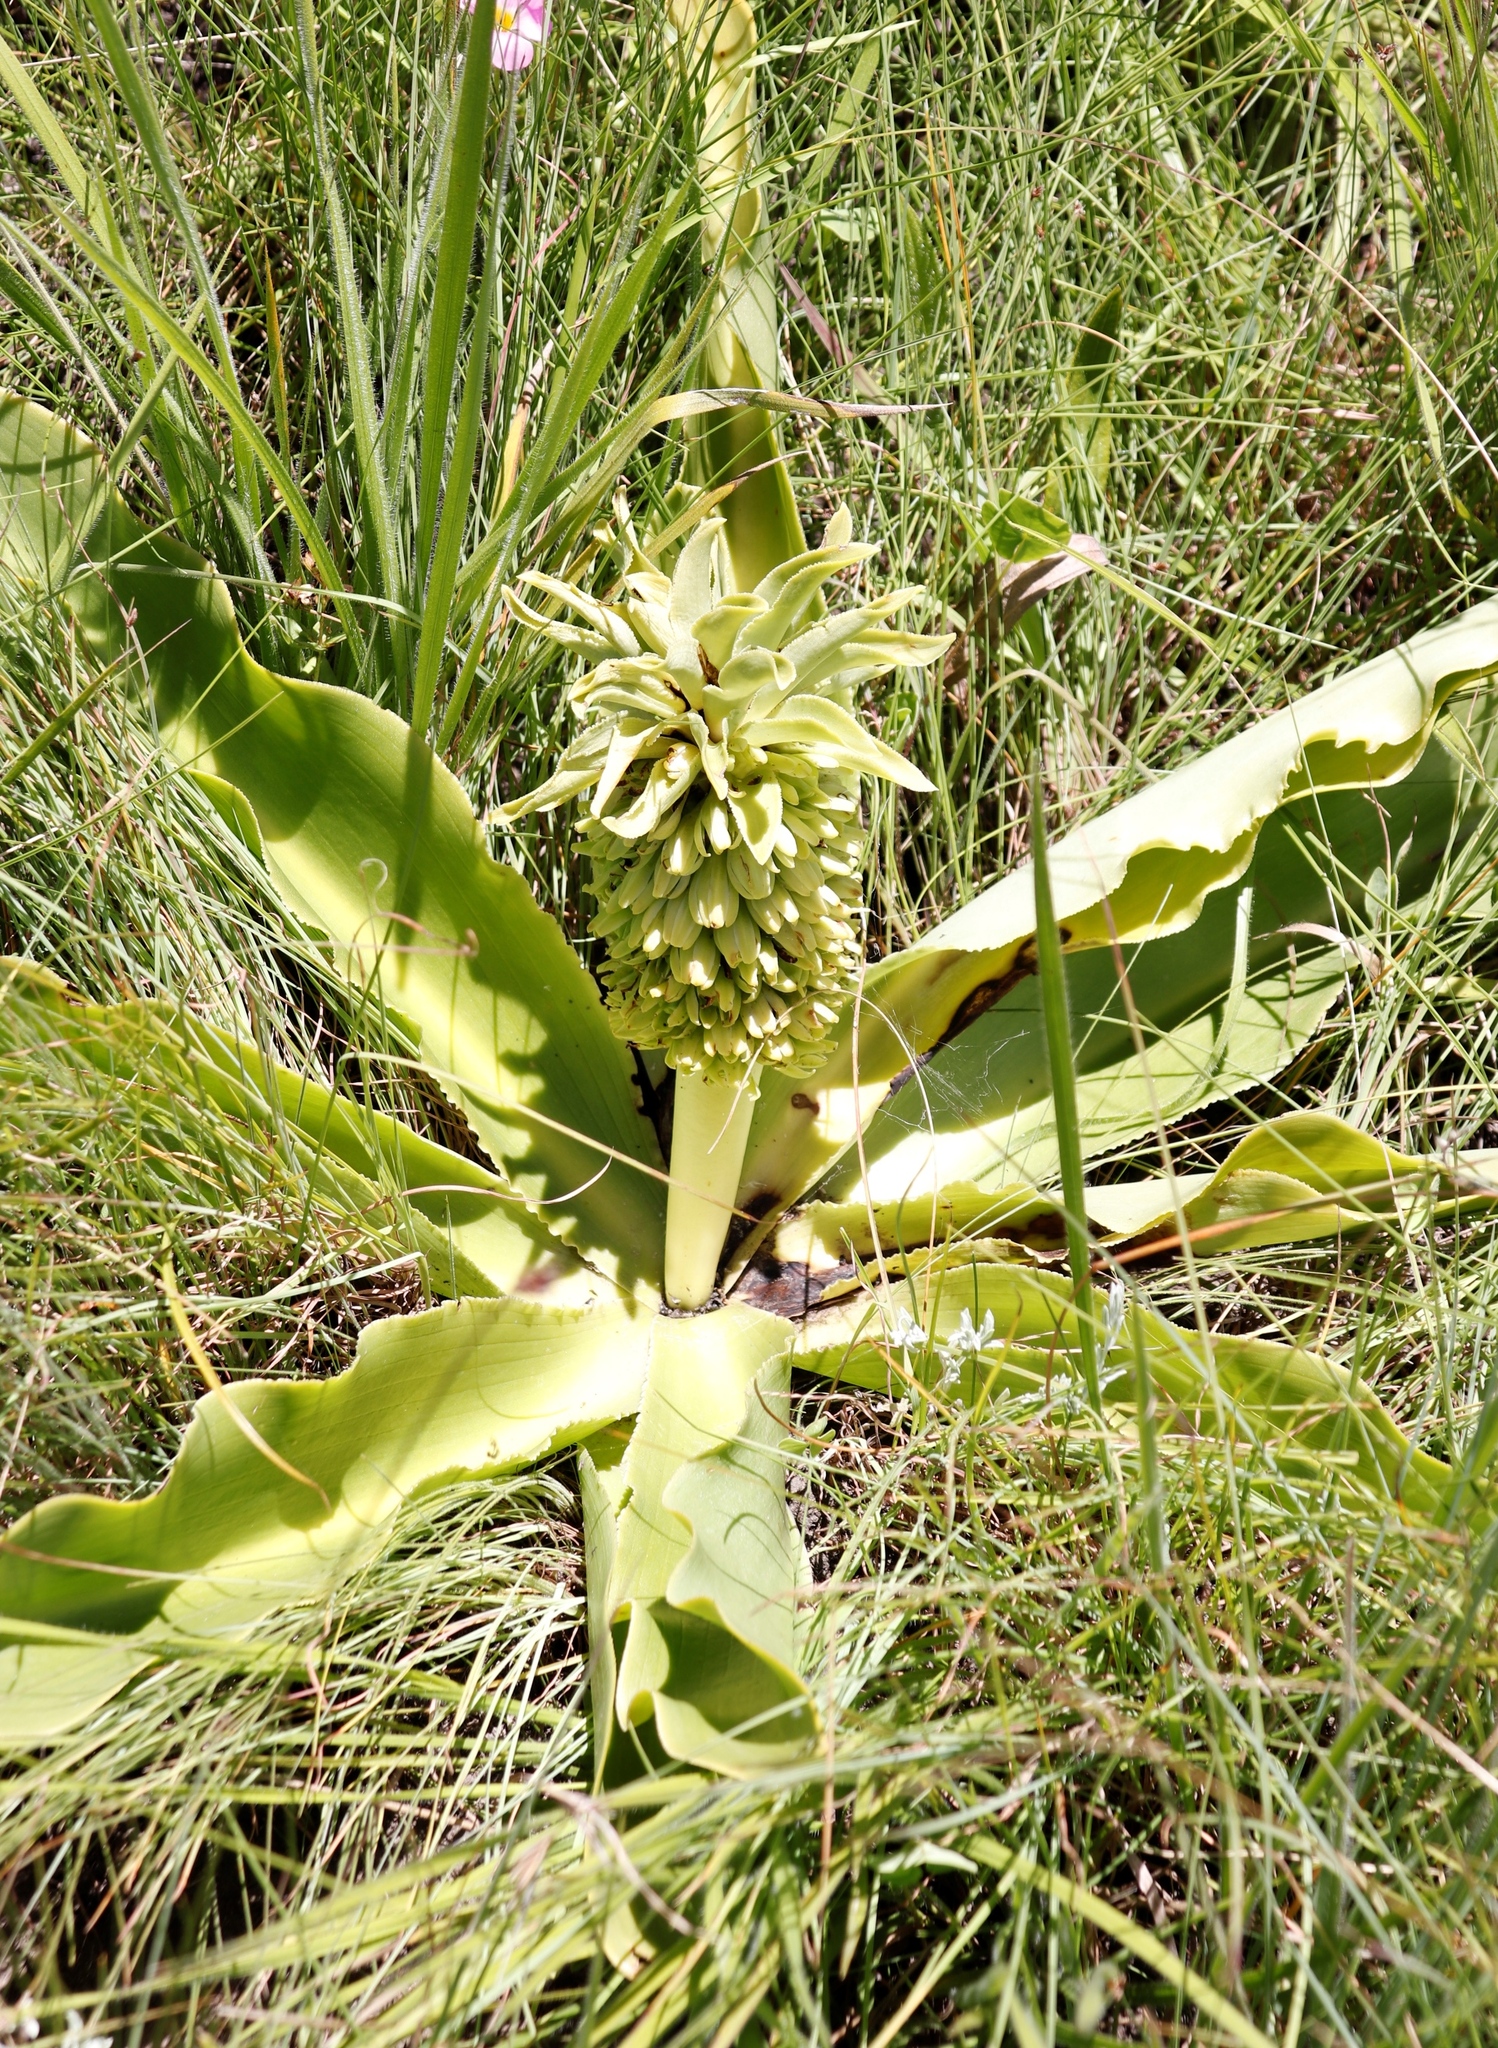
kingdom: Plantae
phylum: Tracheophyta
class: Liliopsida
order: Asparagales
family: Asparagaceae
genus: Eucomis
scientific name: Eucomis autumnalis
